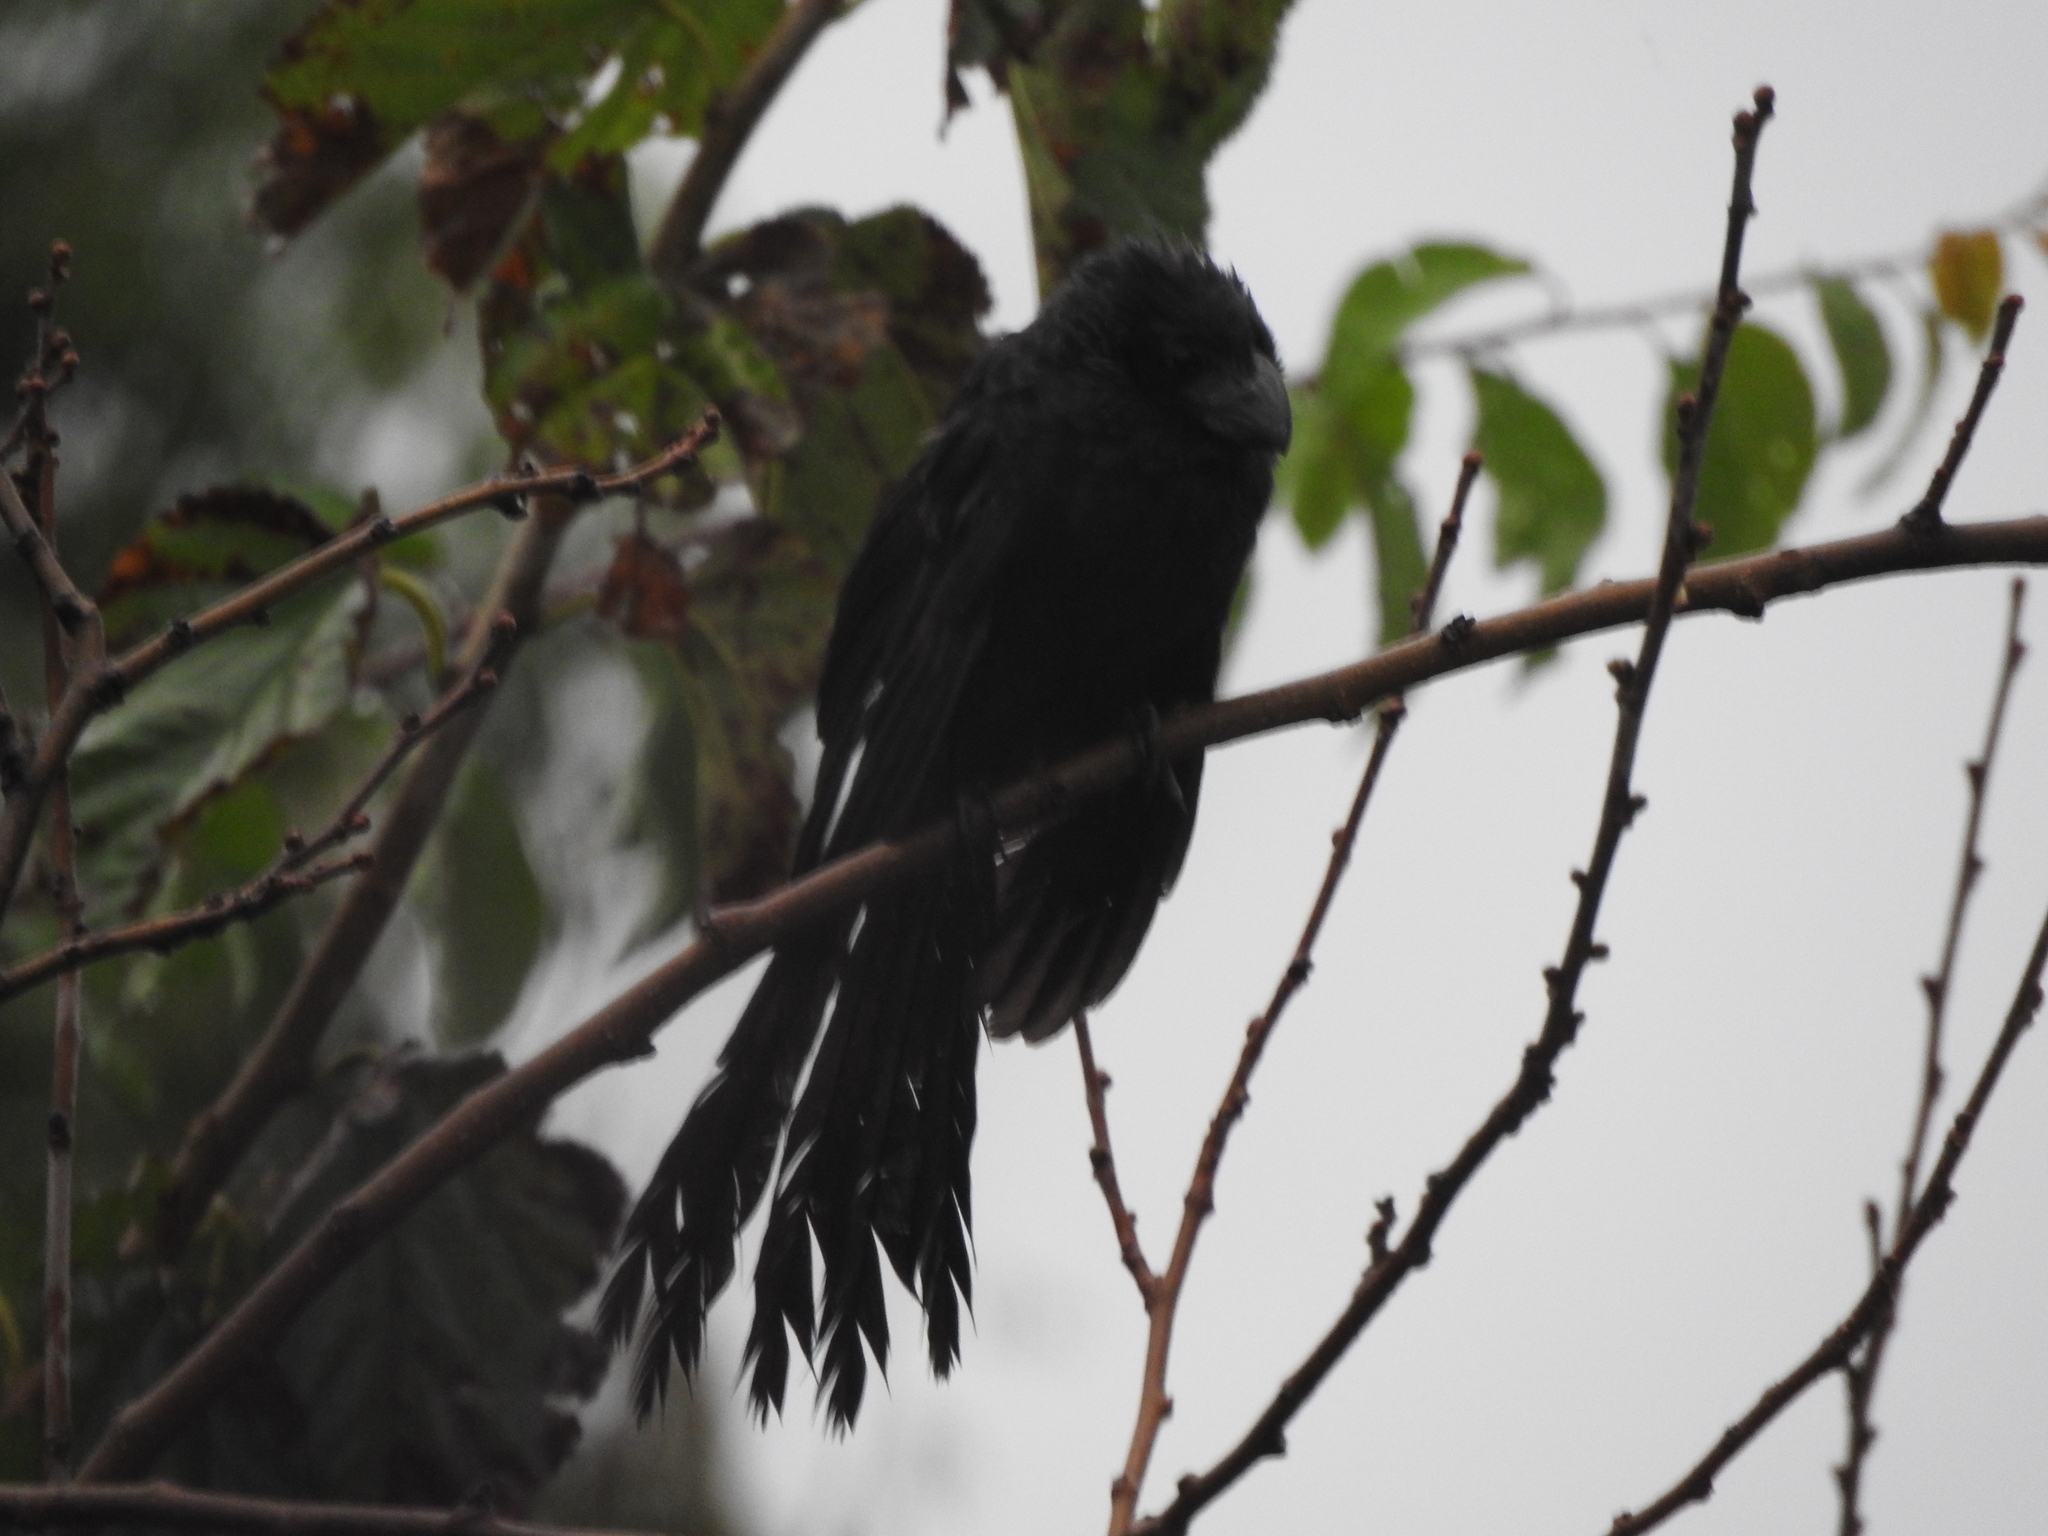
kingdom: Animalia
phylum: Chordata
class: Aves
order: Cuculiformes
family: Cuculidae
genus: Crotophaga
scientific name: Crotophaga sulcirostris
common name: Groove-billed ani
